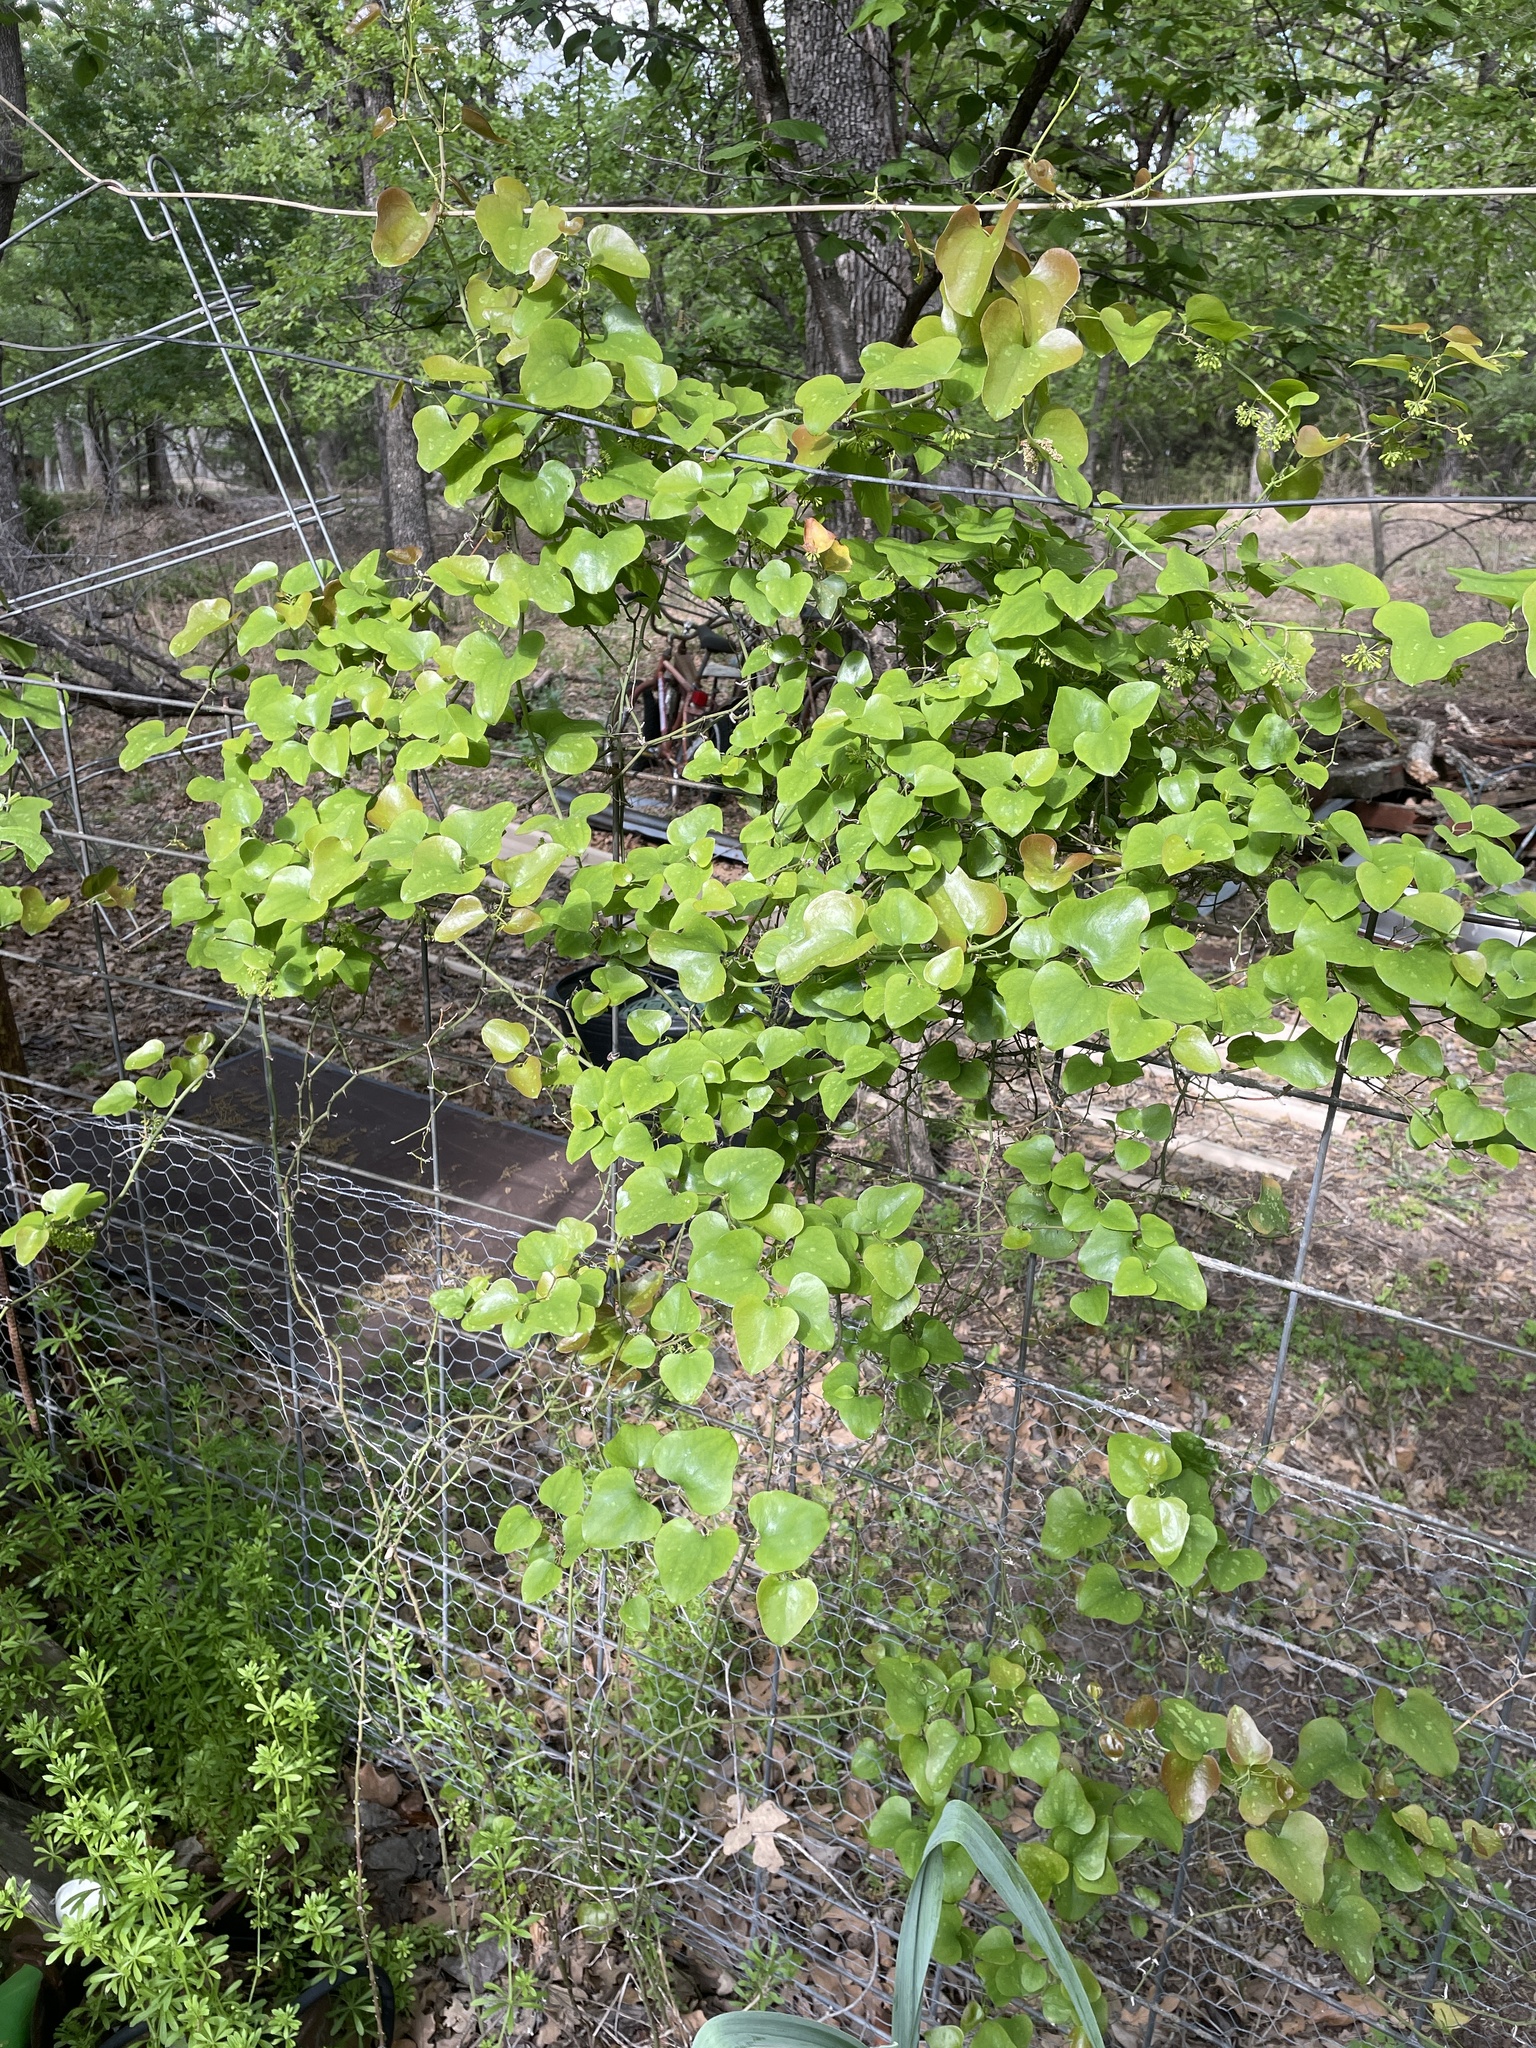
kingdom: Plantae
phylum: Tracheophyta
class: Liliopsida
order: Liliales
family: Smilacaceae
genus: Smilax
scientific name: Smilax bona-nox
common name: Catbrier
